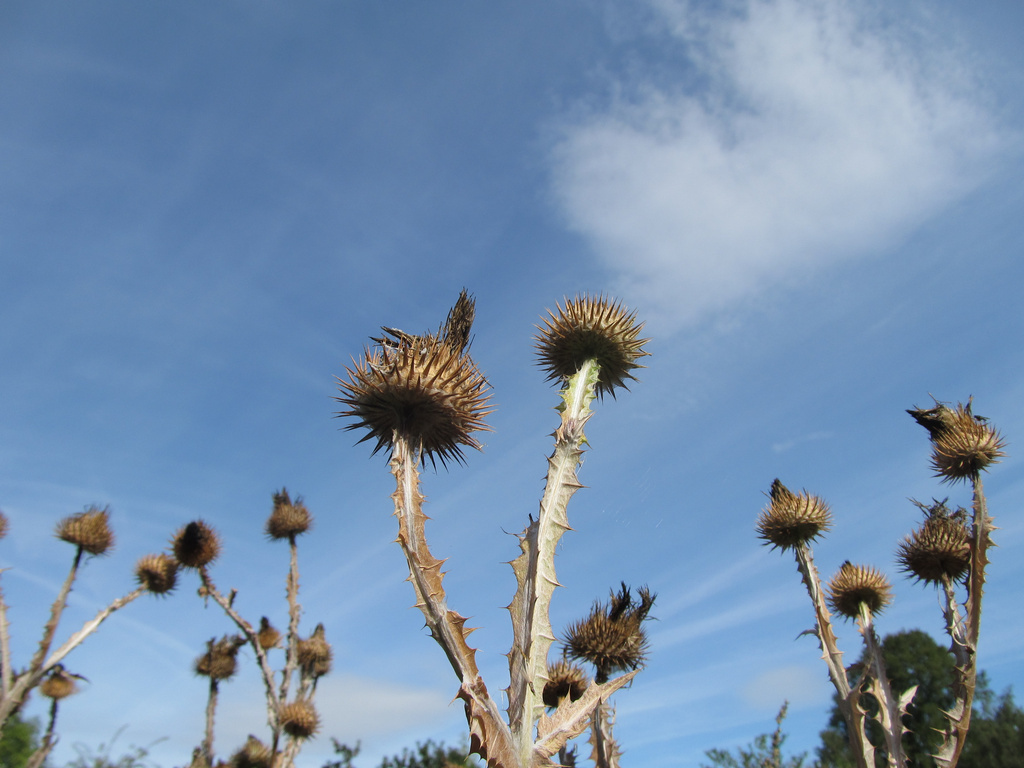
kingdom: Plantae
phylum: Tracheophyta
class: Magnoliopsida
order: Asterales
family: Asteraceae
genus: Onopordum
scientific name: Onopordum acanthium
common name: Scotch thistle
